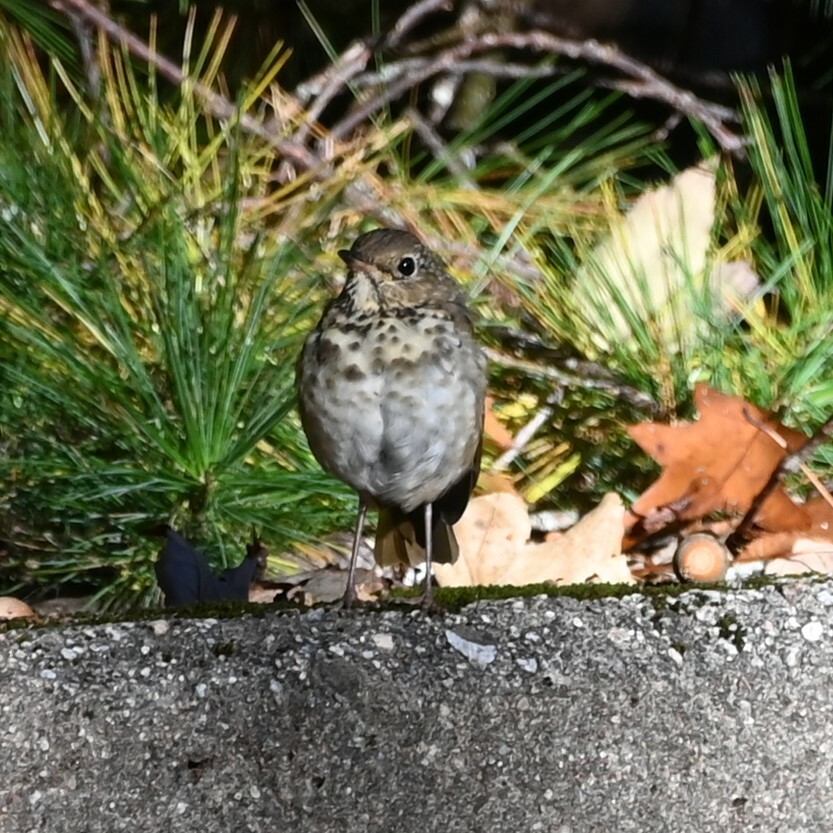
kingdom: Animalia
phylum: Chordata
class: Aves
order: Passeriformes
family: Turdidae
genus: Catharus
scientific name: Catharus guttatus
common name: Hermit thrush
